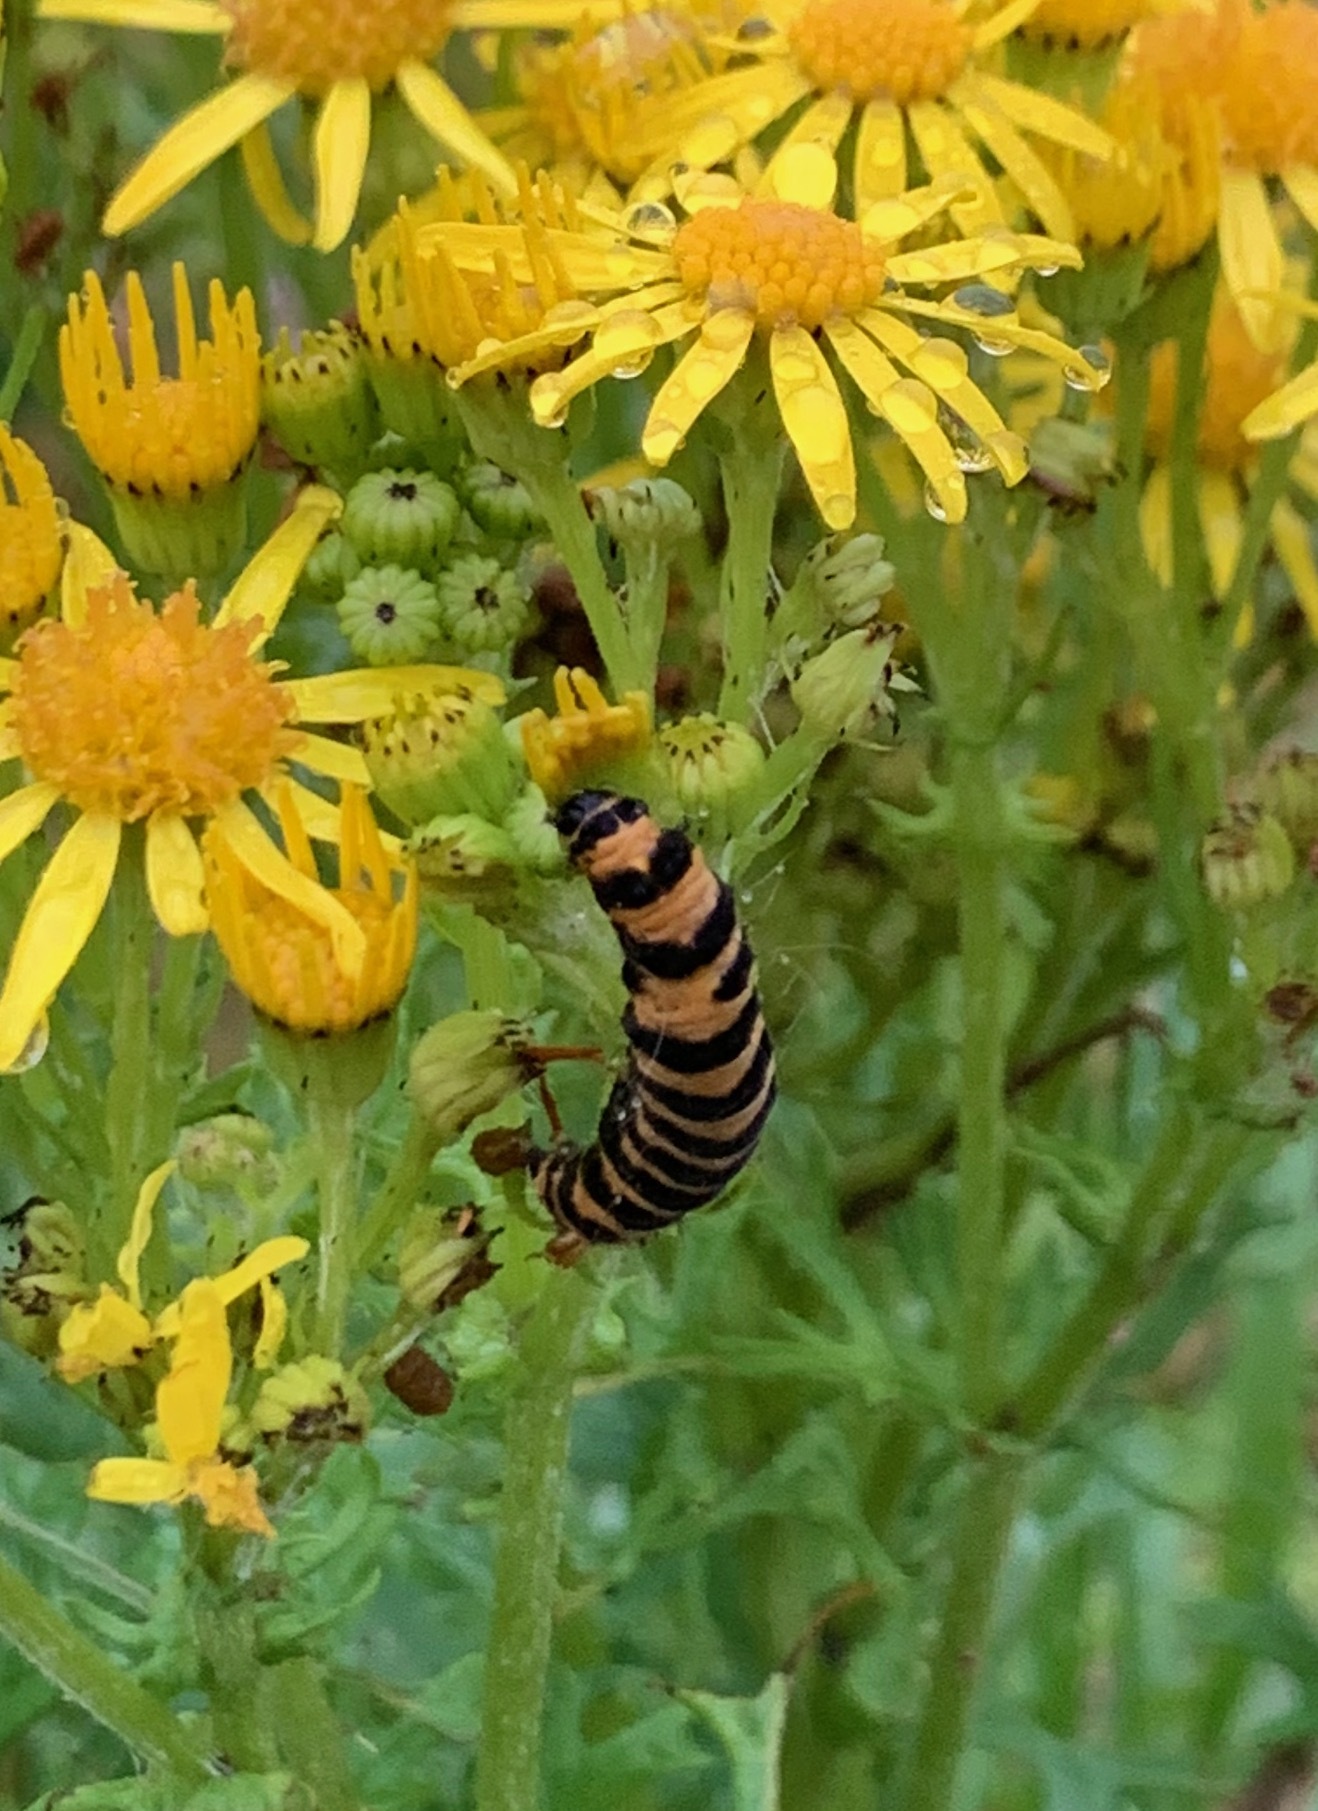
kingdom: Animalia
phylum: Arthropoda
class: Insecta
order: Lepidoptera
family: Erebidae
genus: Tyria
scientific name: Tyria jacobaeae
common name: Cinnabar
